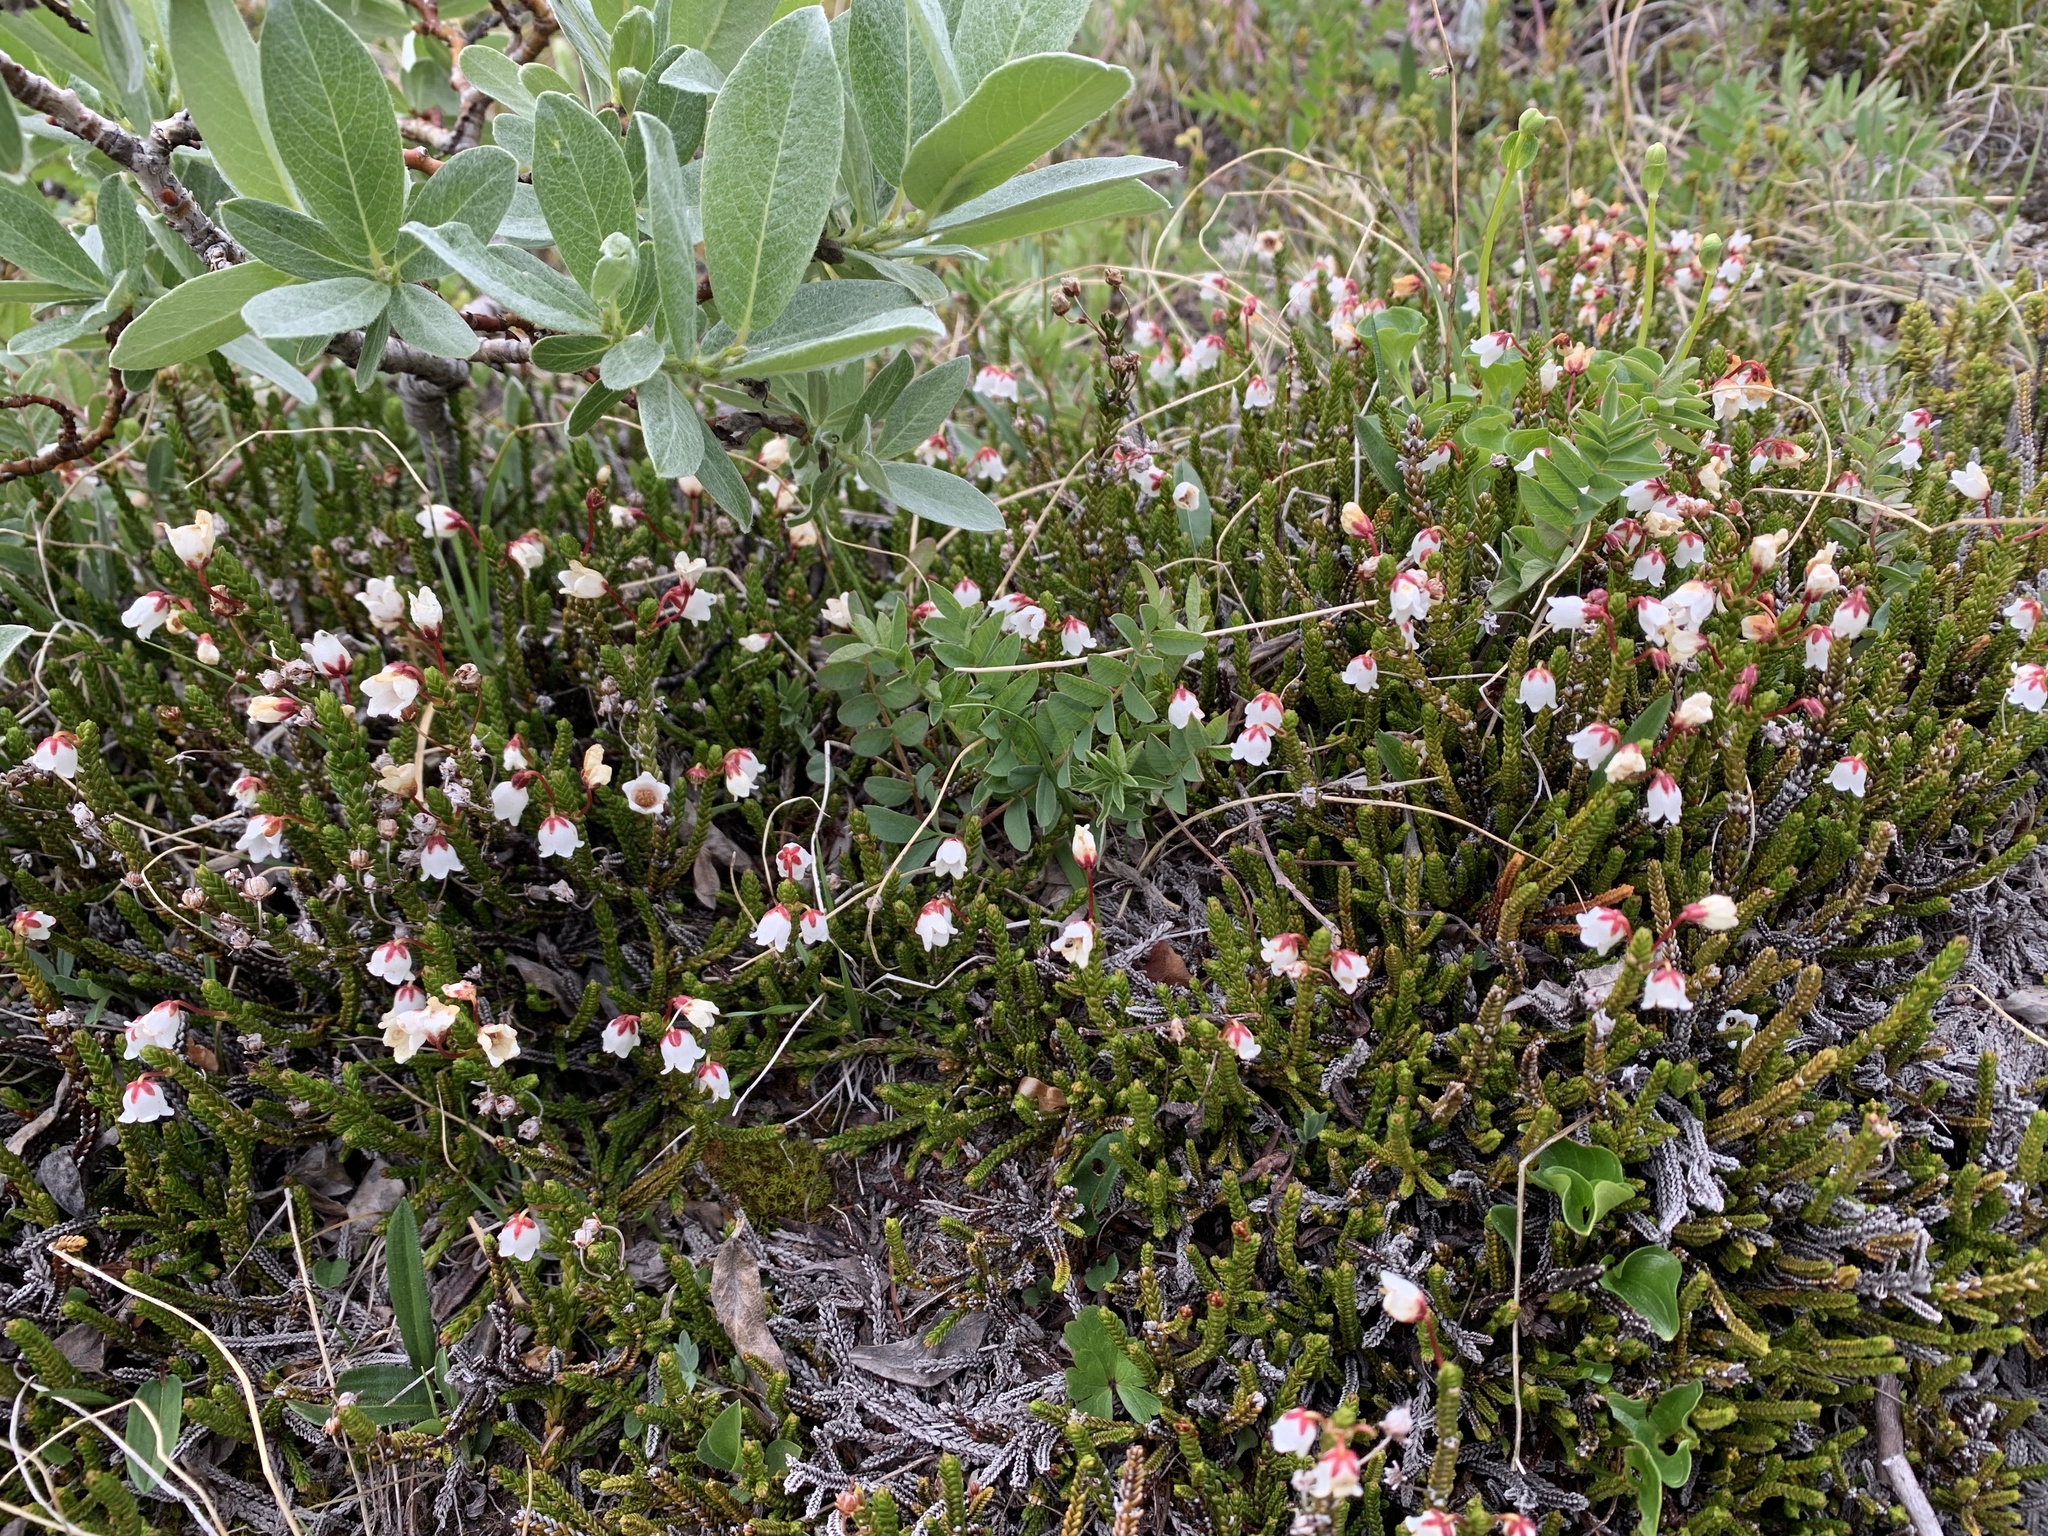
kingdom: Plantae
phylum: Tracheophyta
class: Magnoliopsida
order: Ericales
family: Ericaceae
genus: Cassiope
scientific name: Cassiope mertensiana
